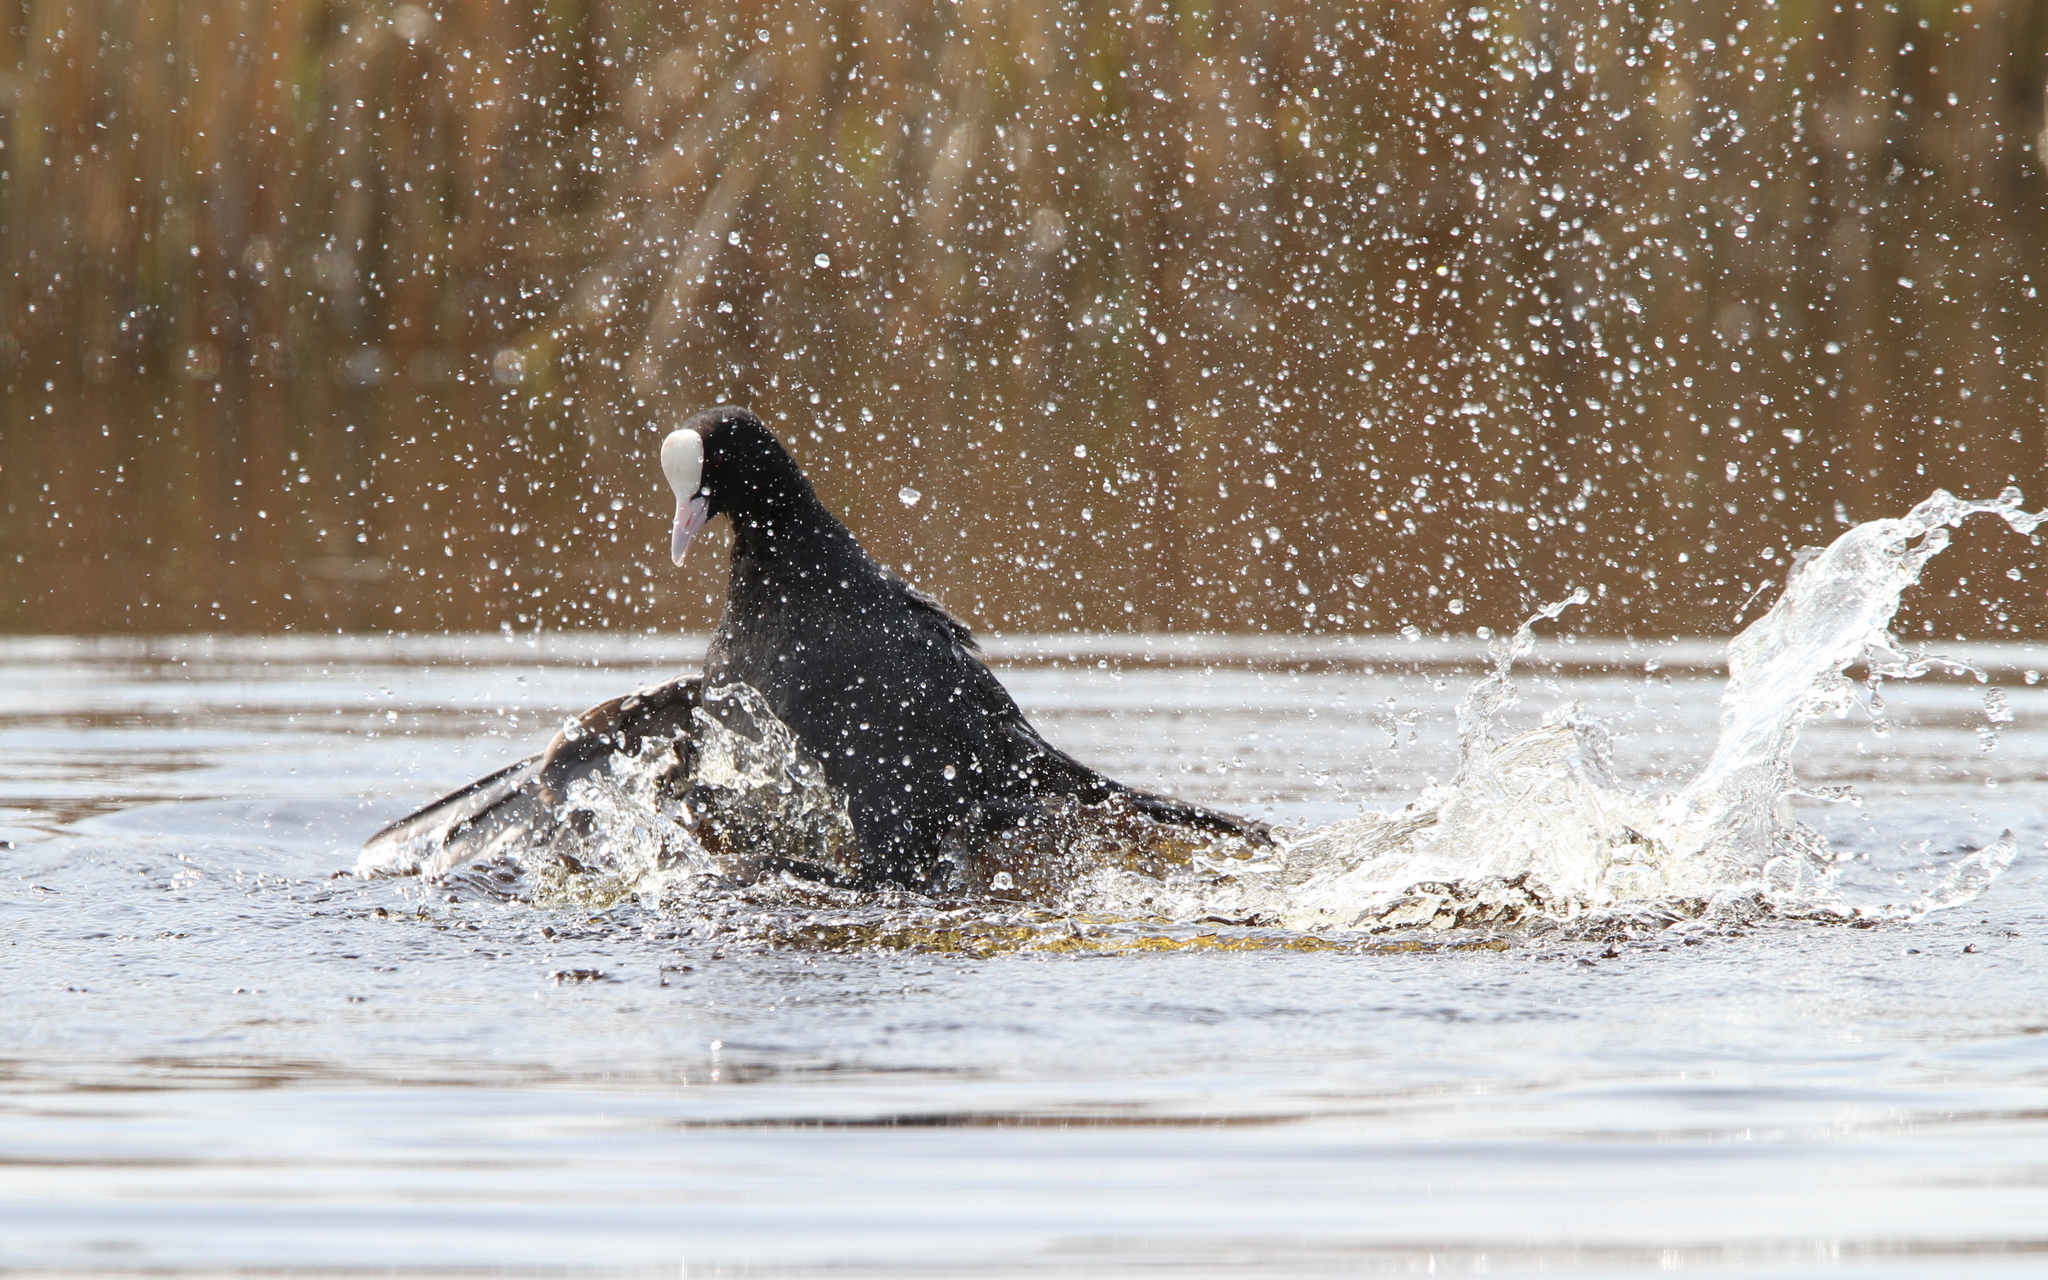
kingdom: Animalia
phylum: Chordata
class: Aves
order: Gruiformes
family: Rallidae
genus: Fulica
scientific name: Fulica atra
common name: Eurasian coot
